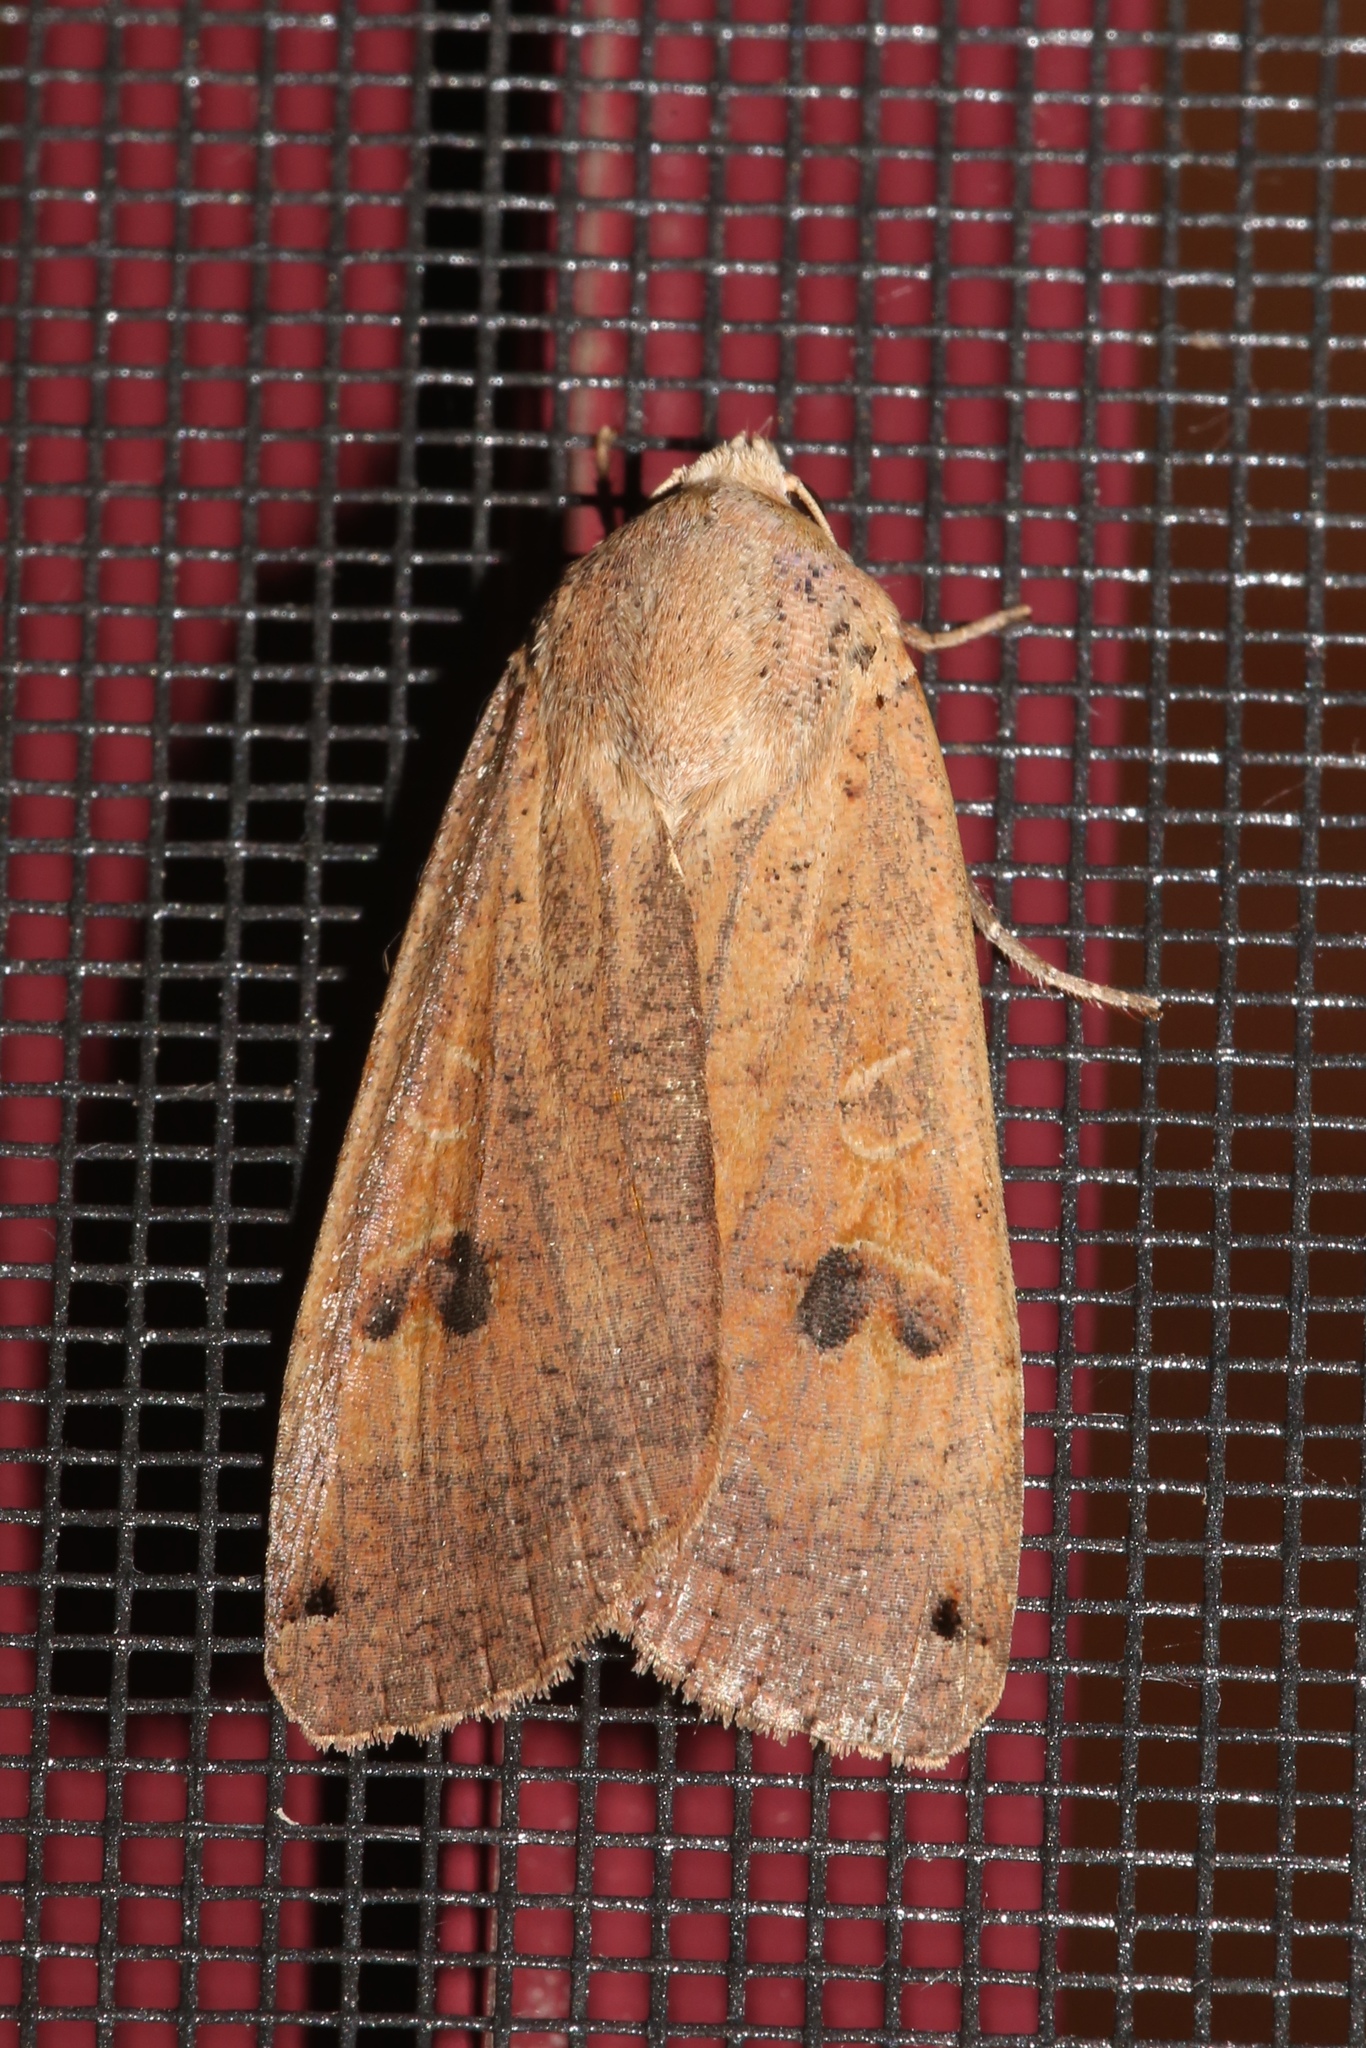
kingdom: Animalia
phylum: Arthropoda
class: Insecta
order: Lepidoptera
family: Noctuidae
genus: Noctua
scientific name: Noctua pronuba
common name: Large yellow underwing
